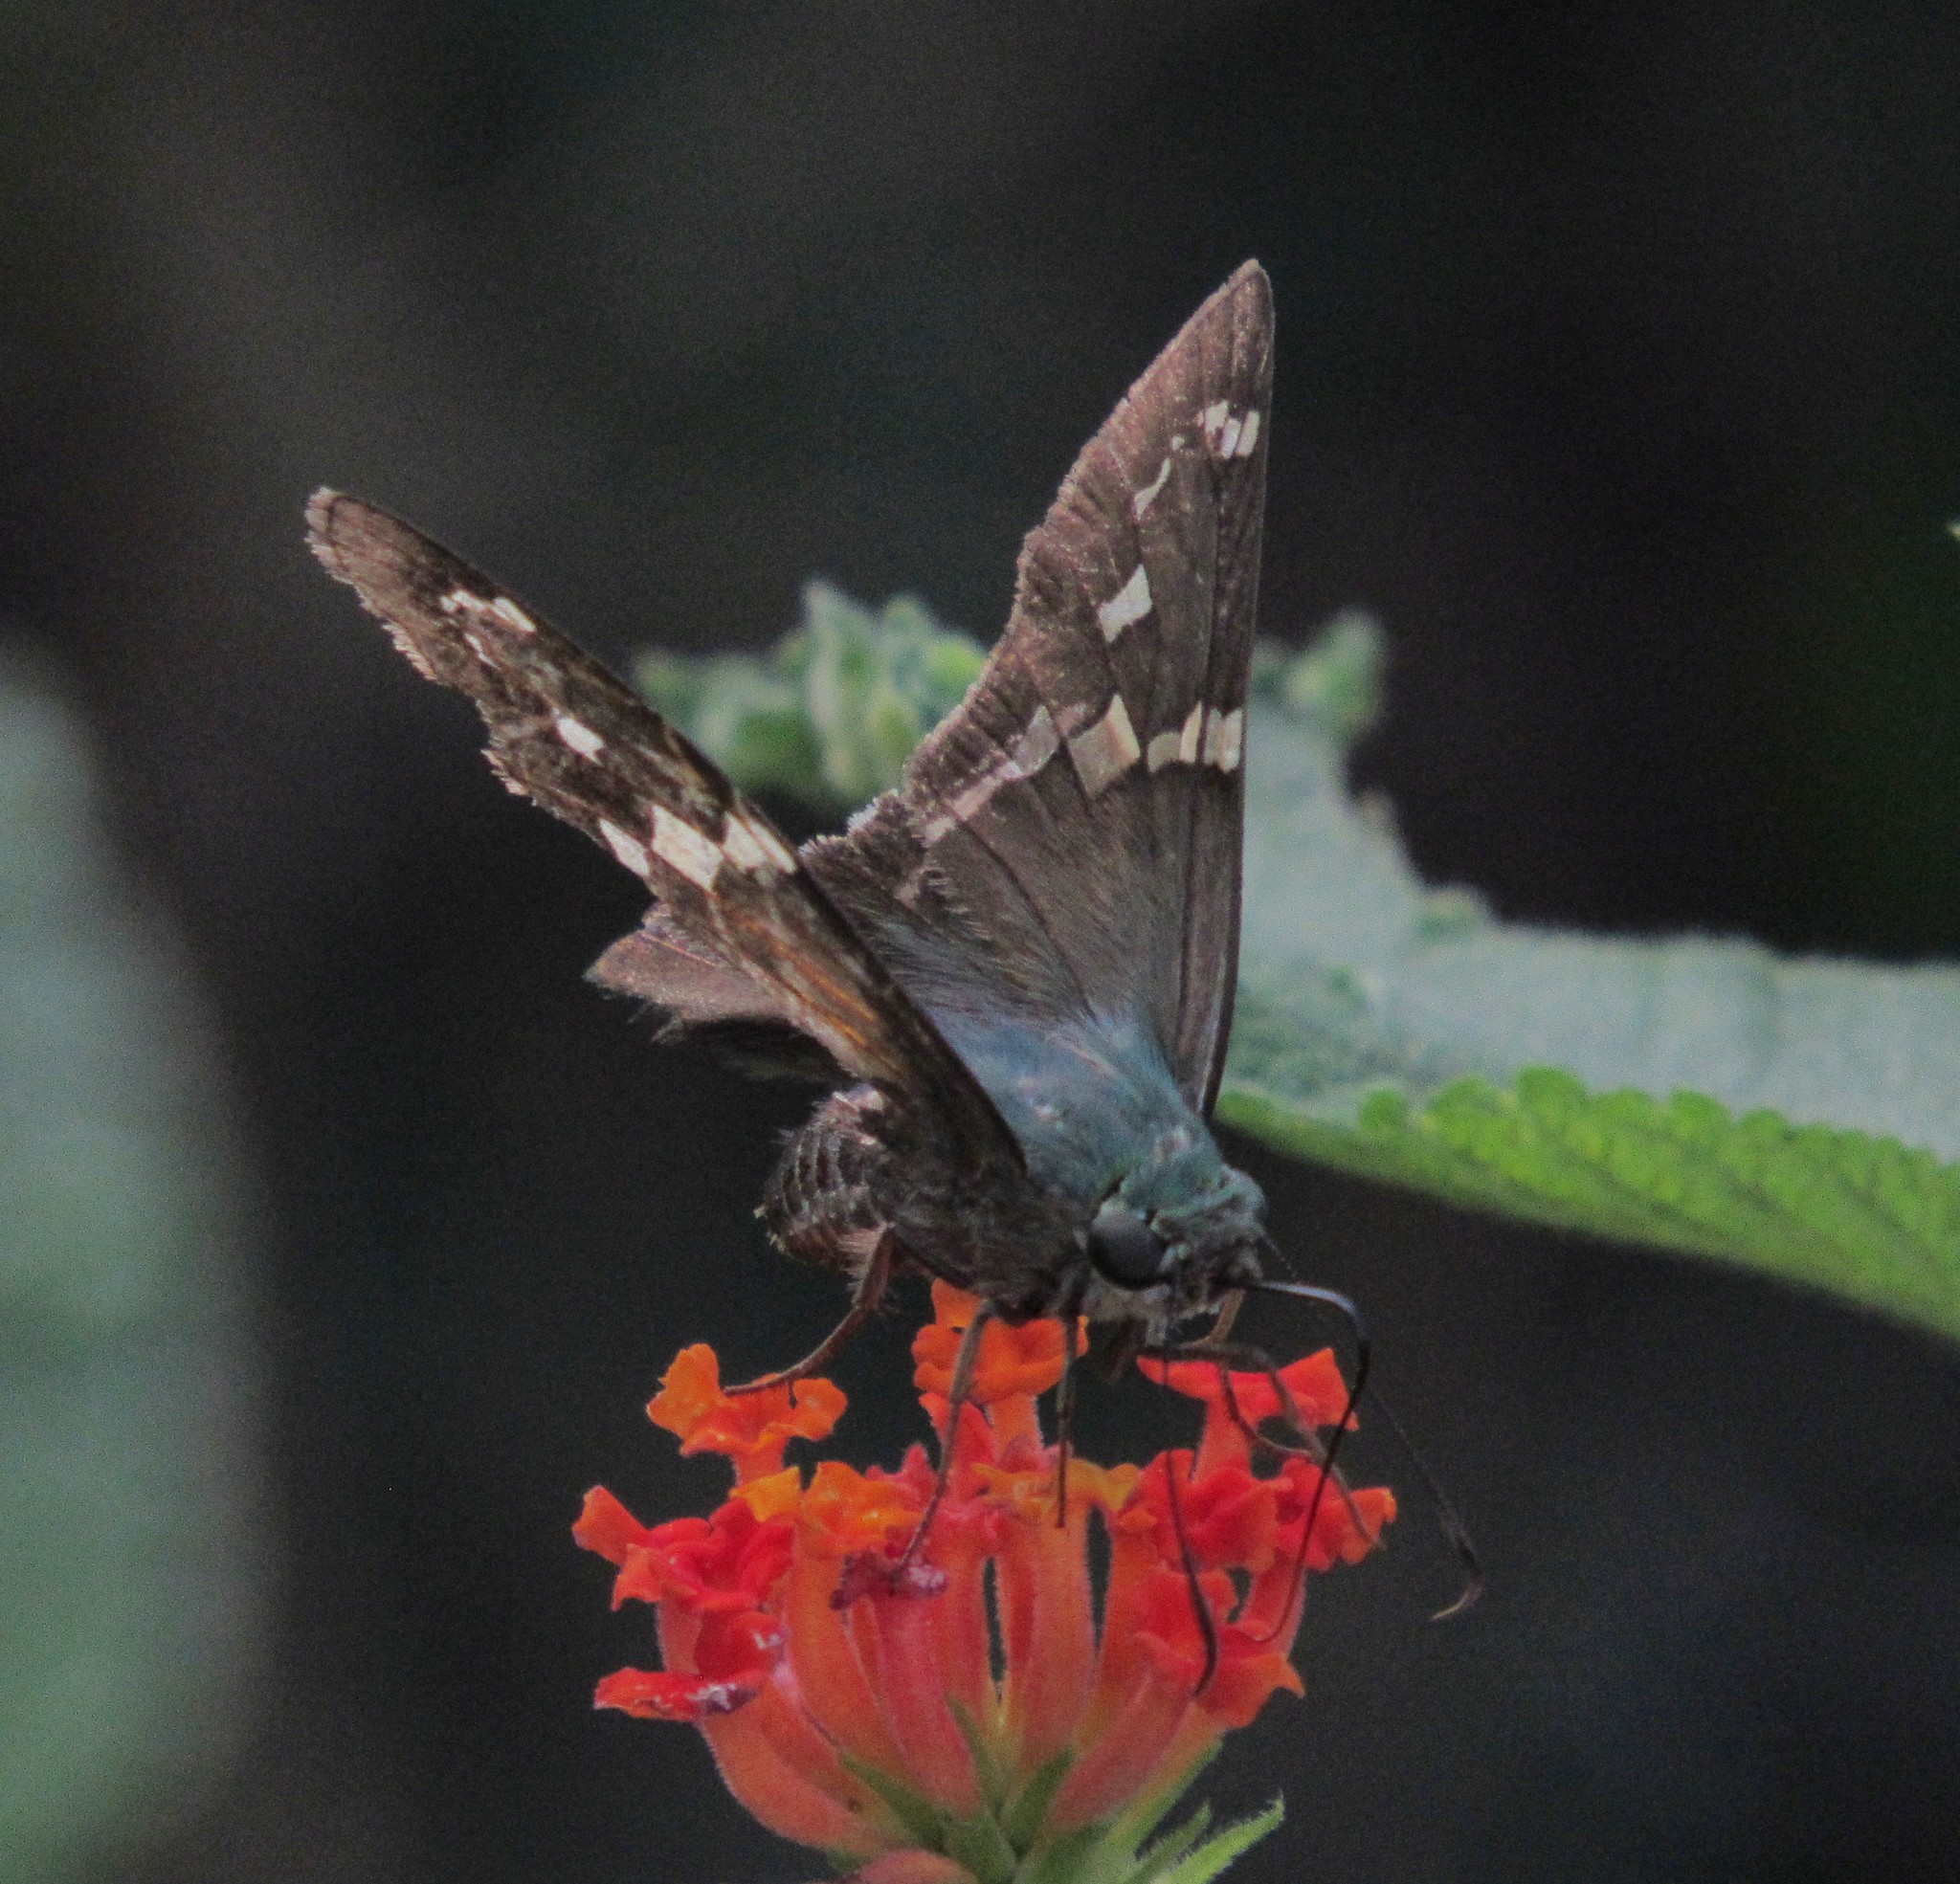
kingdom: Animalia
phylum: Arthropoda
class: Insecta
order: Lepidoptera
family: Hesperiidae
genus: Urbanus
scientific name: Urbanus proteus
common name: Long-tailed skipper
